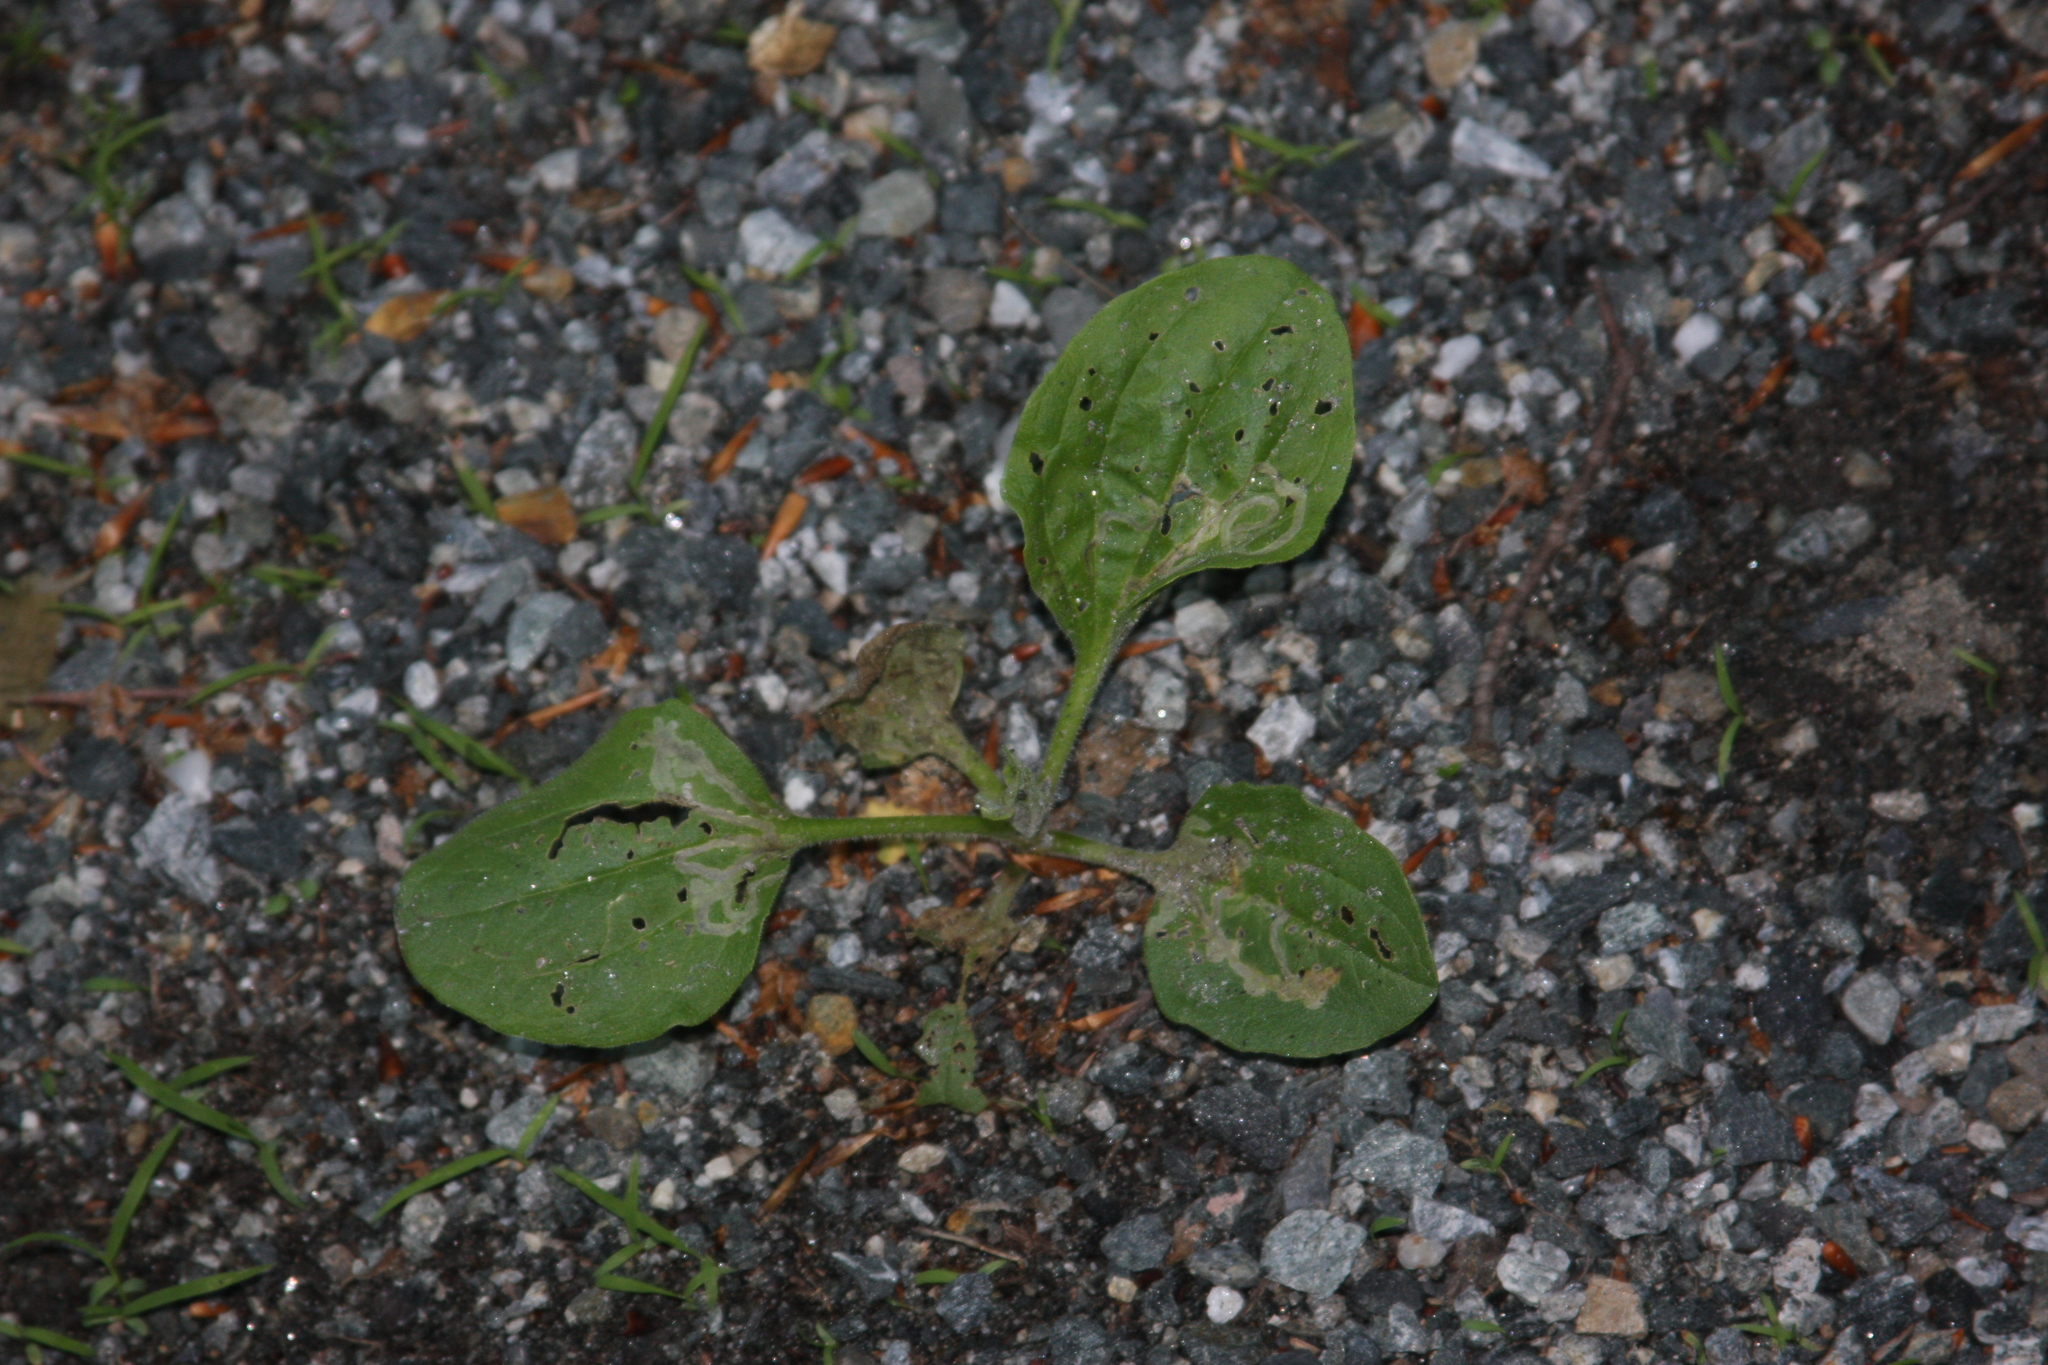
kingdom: Plantae
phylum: Tracheophyta
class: Magnoliopsida
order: Lamiales
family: Plantaginaceae
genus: Plantago
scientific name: Plantago major
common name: Common plantain
